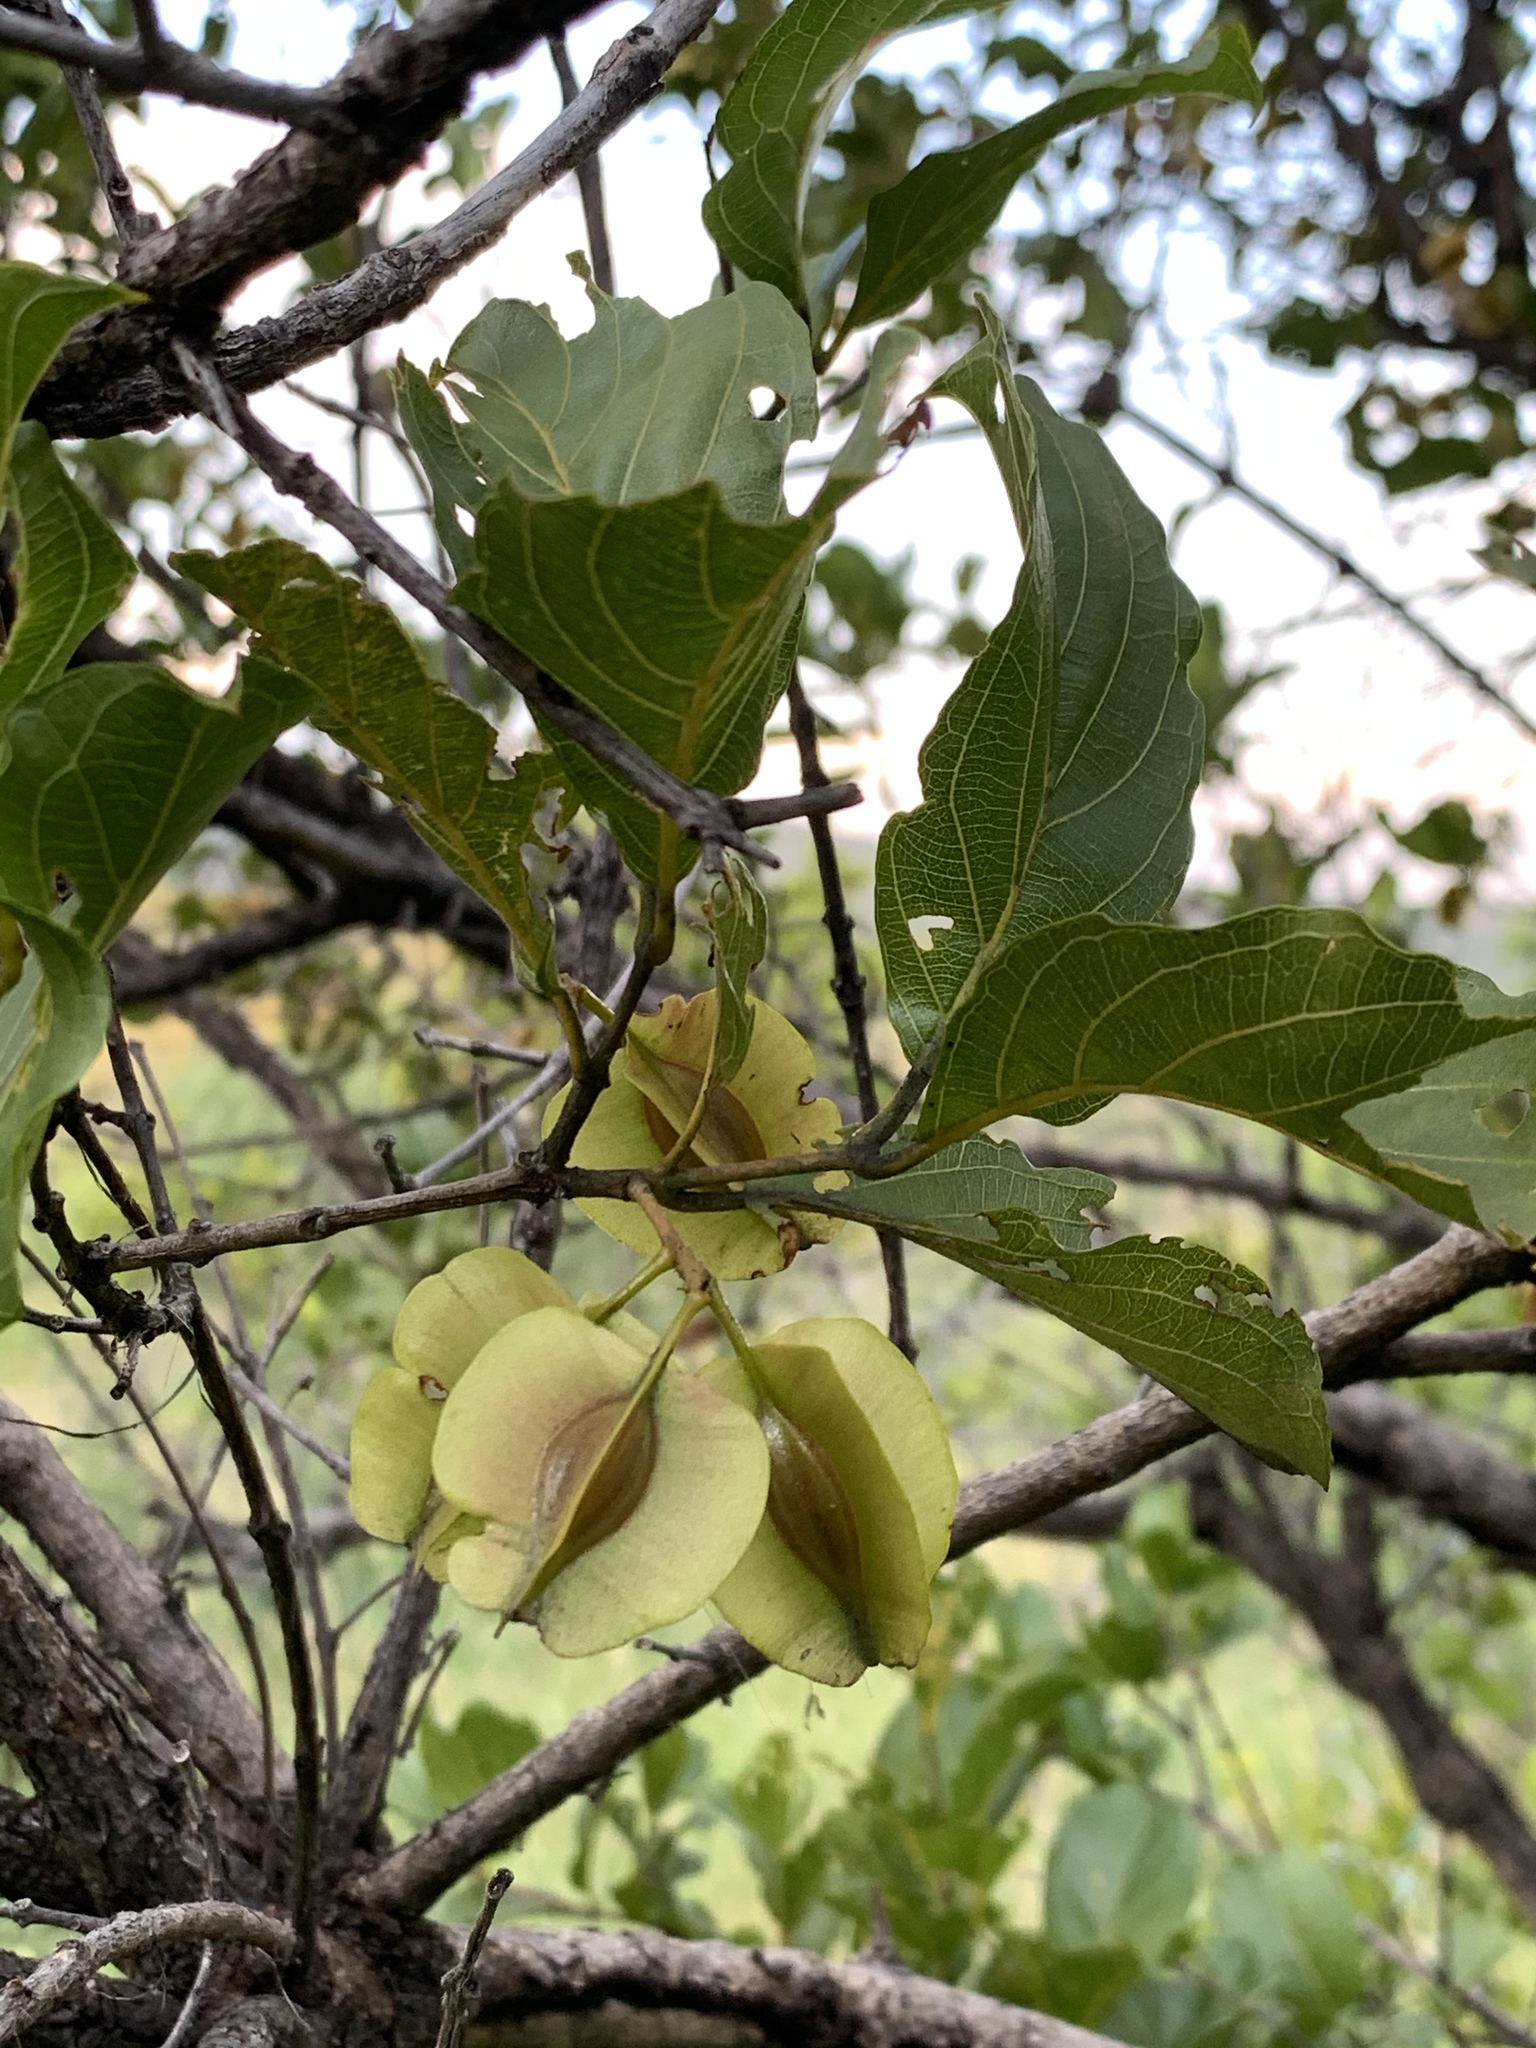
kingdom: Plantae
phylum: Tracheophyta
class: Magnoliopsida
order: Myrtales
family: Combretaceae
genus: Combretum
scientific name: Combretum apiculatum
